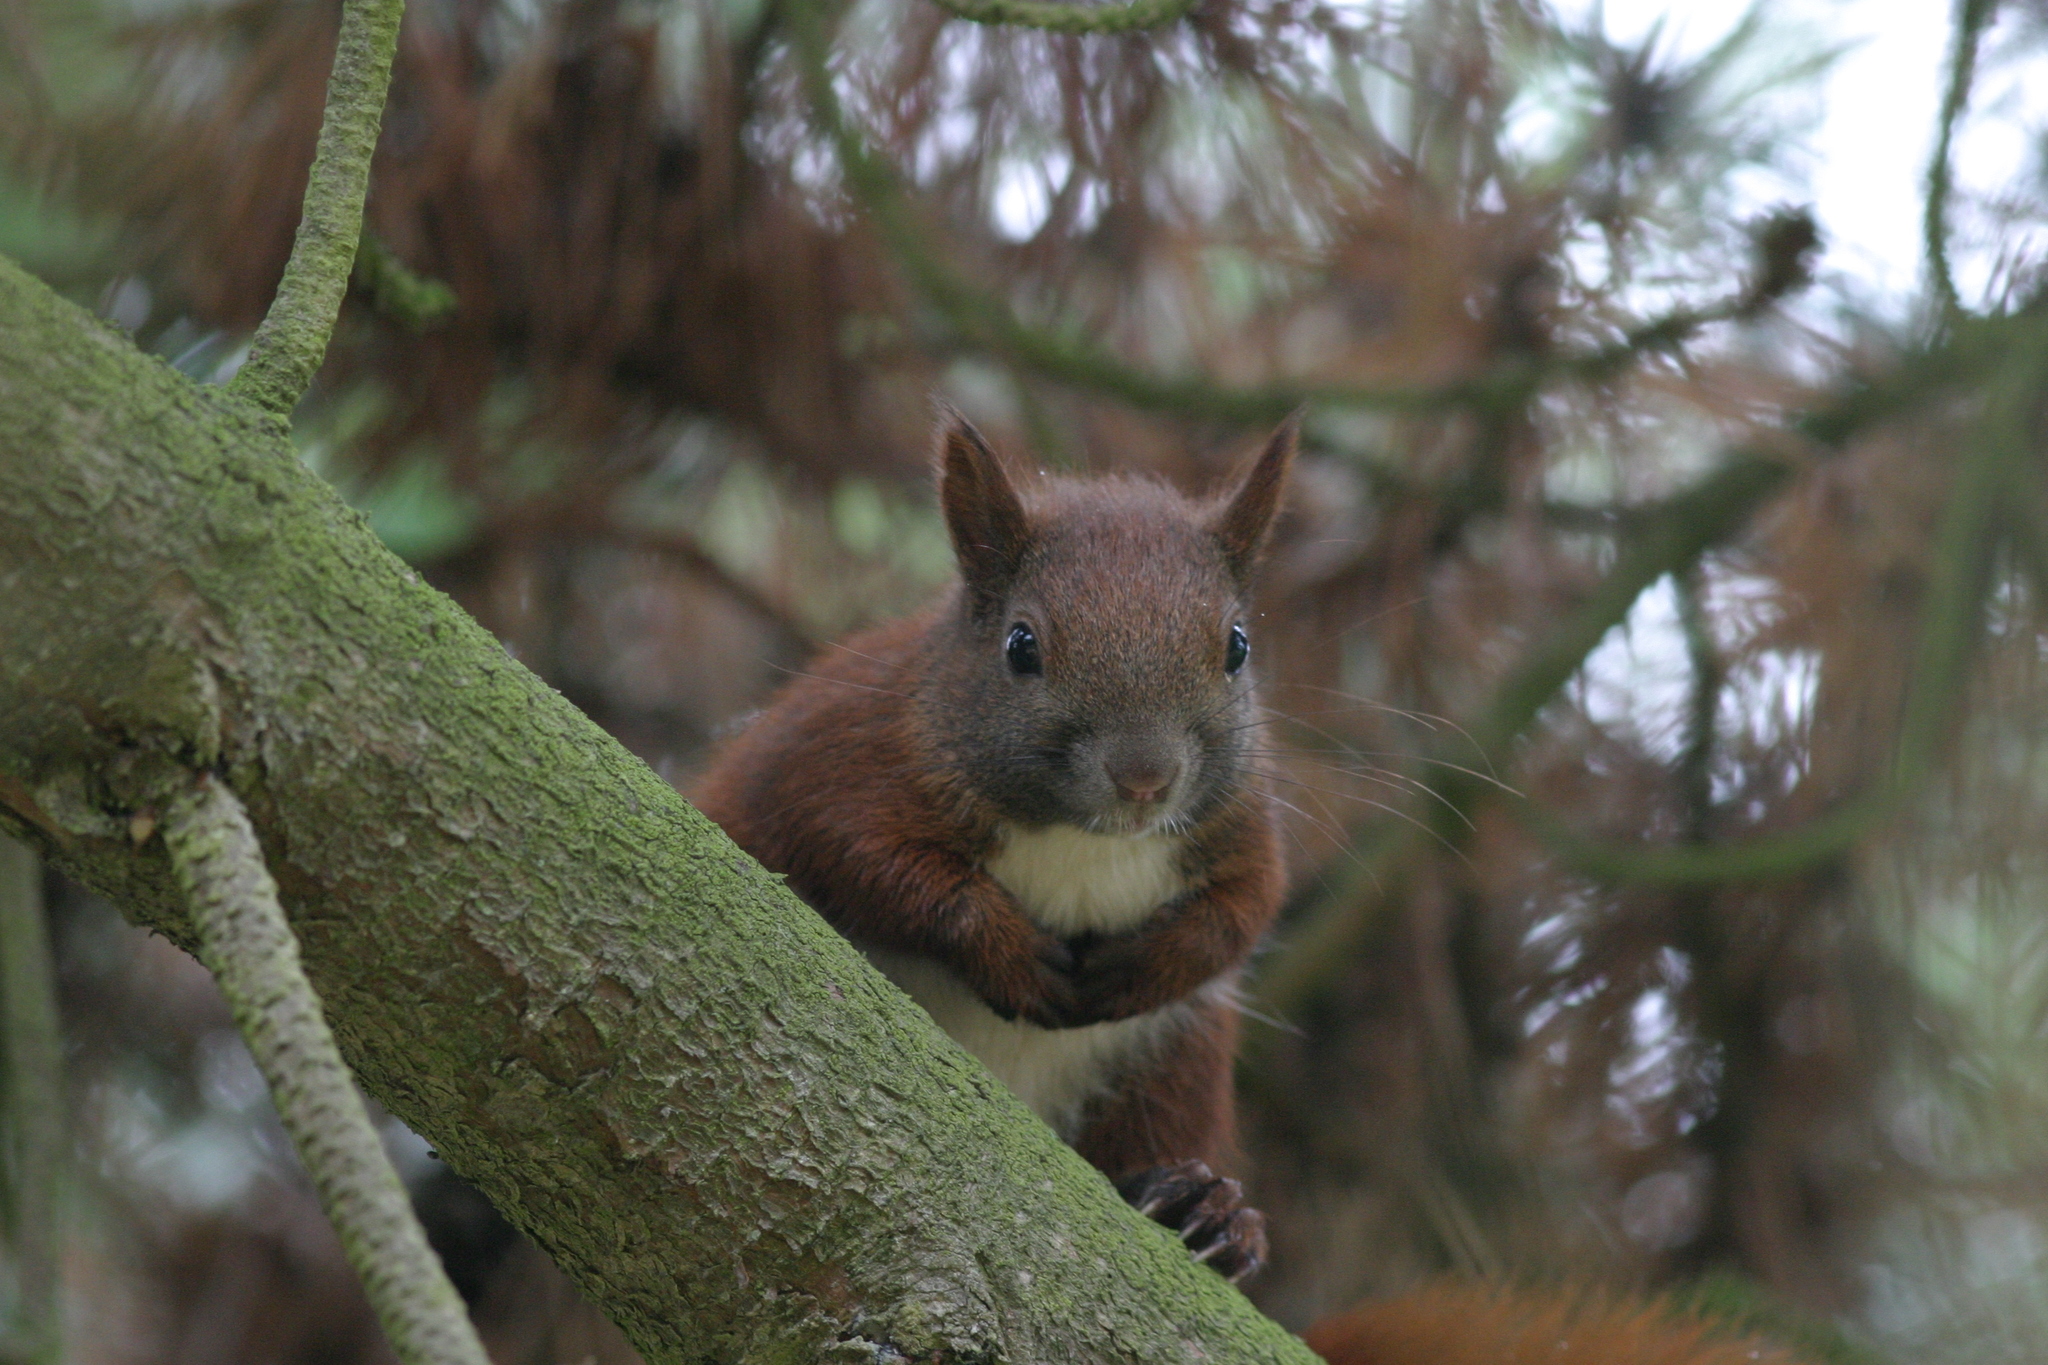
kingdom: Animalia
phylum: Chordata
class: Mammalia
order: Rodentia
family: Sciuridae
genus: Sciurus
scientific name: Sciurus vulgaris
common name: Eurasian red squirrel
